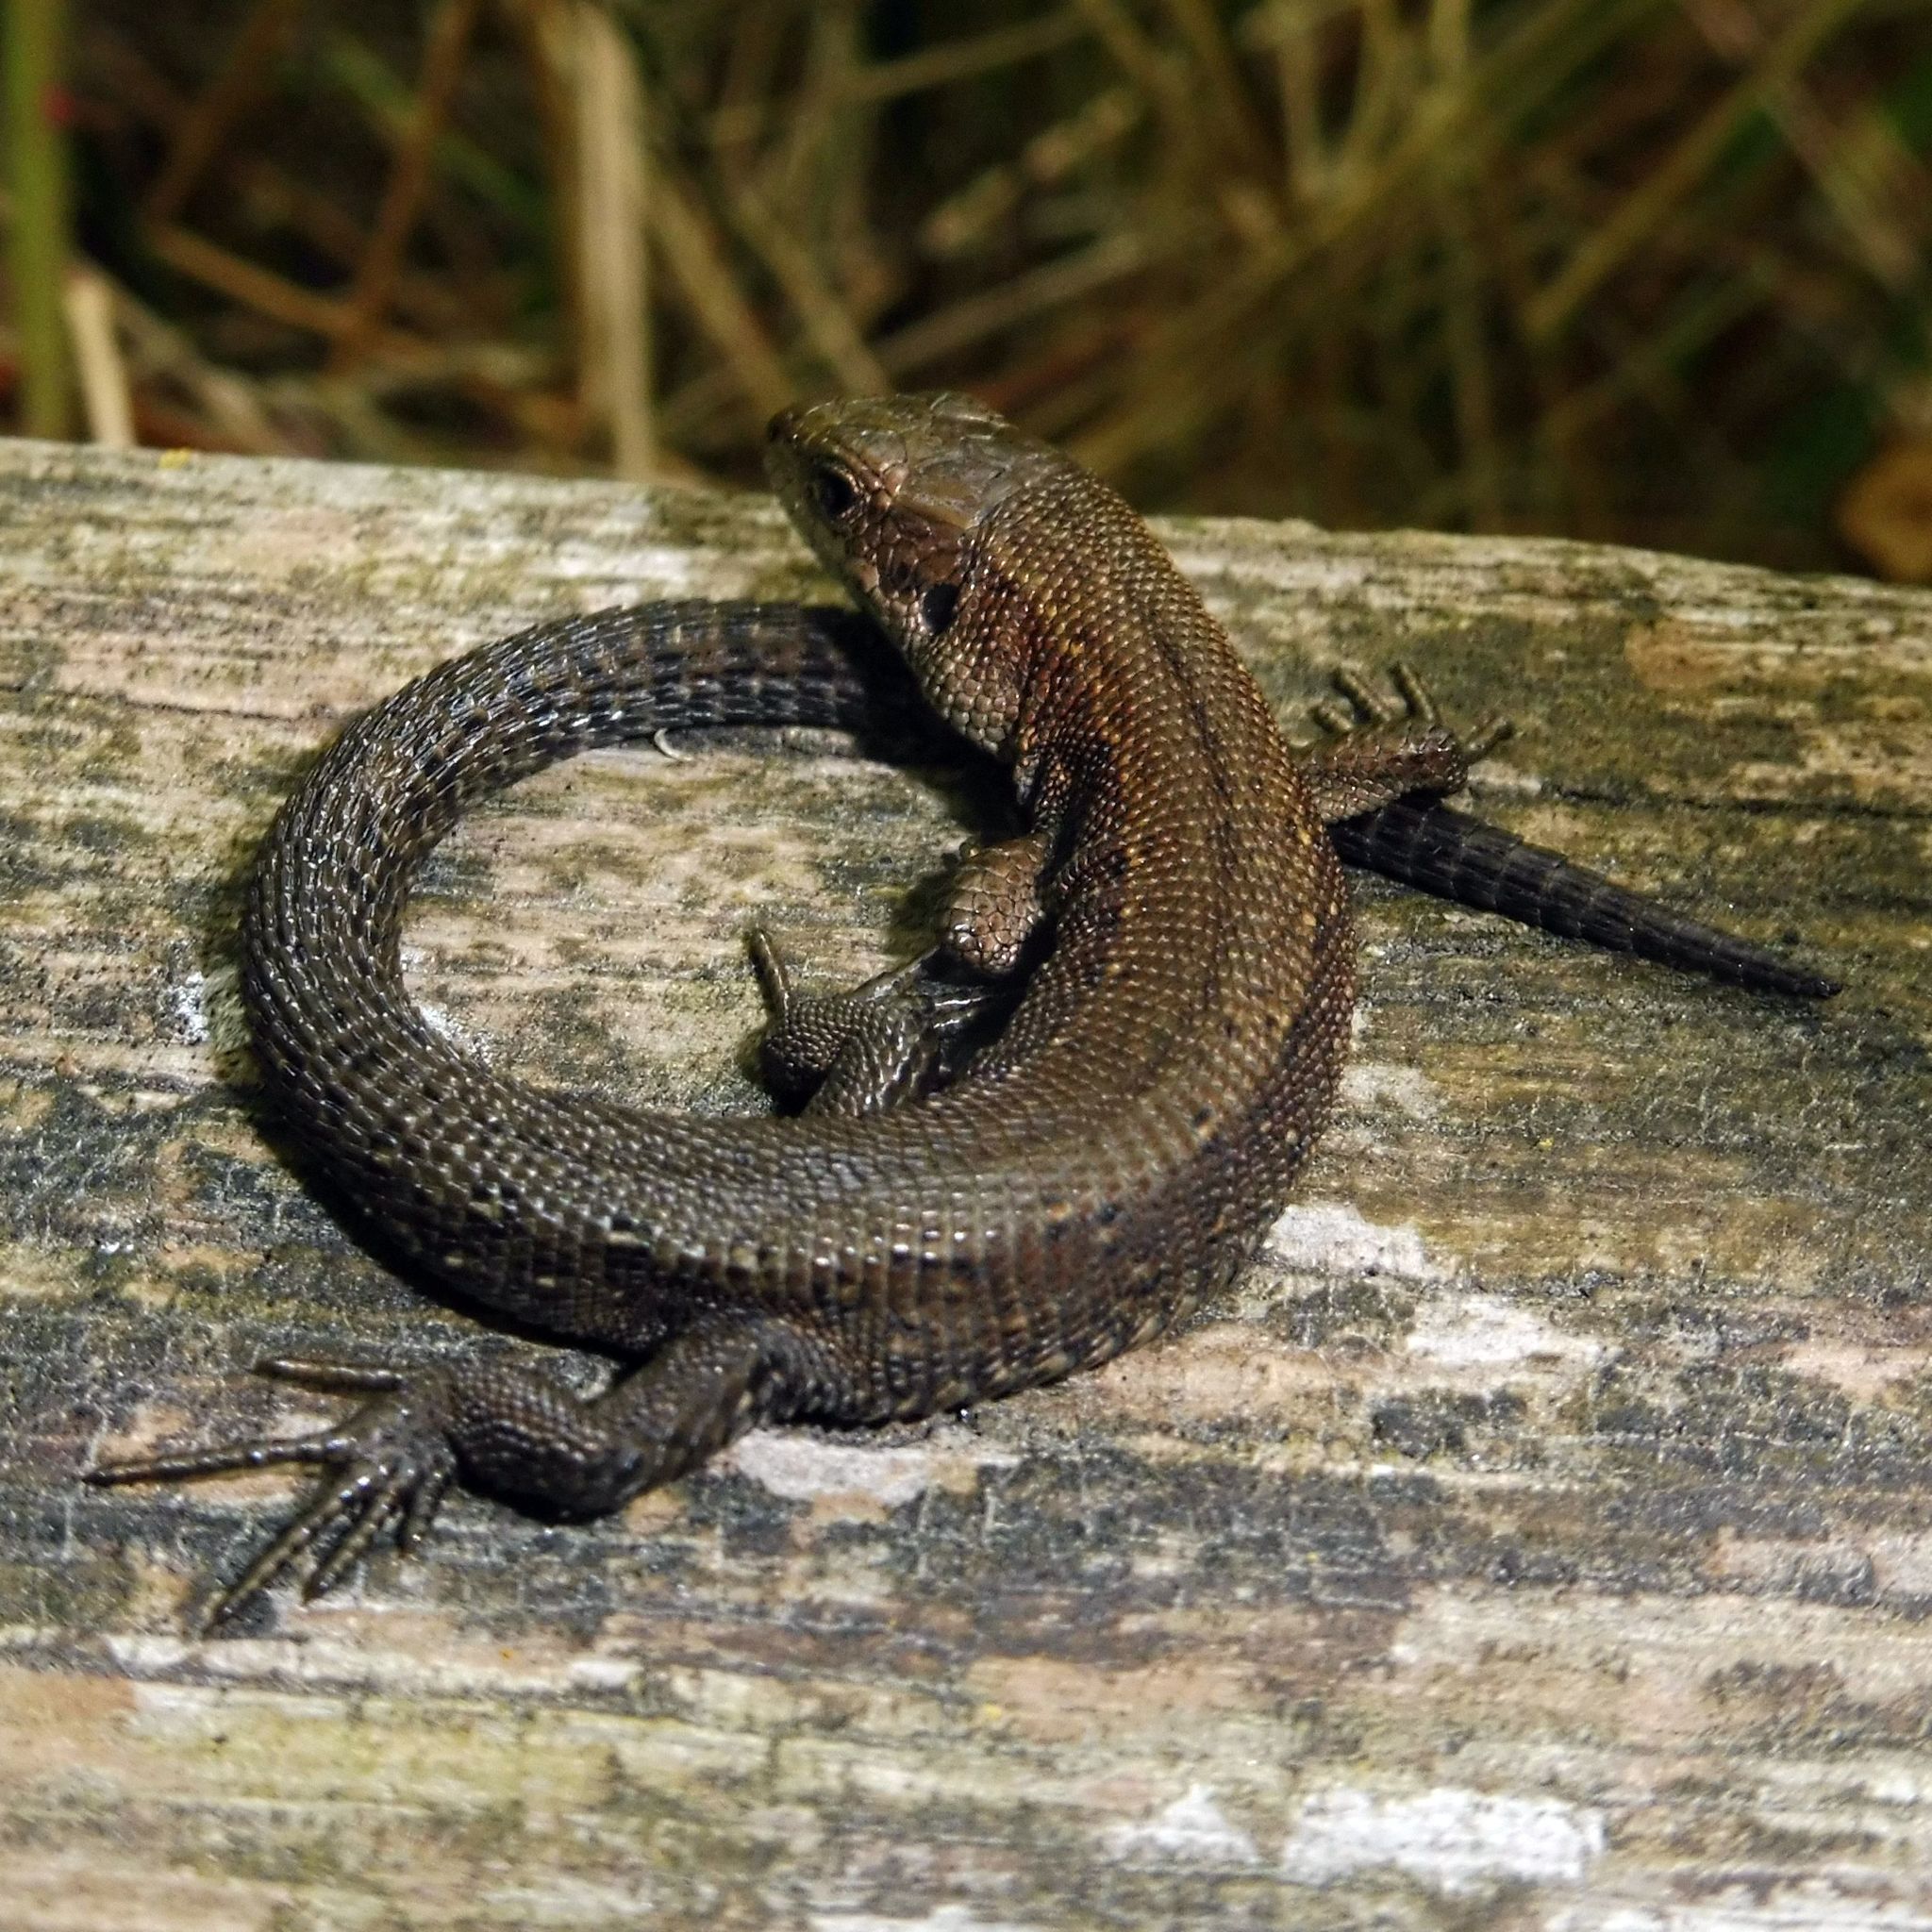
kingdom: Animalia
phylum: Chordata
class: Squamata
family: Lacertidae
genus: Zootoca
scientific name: Zootoca vivipara
